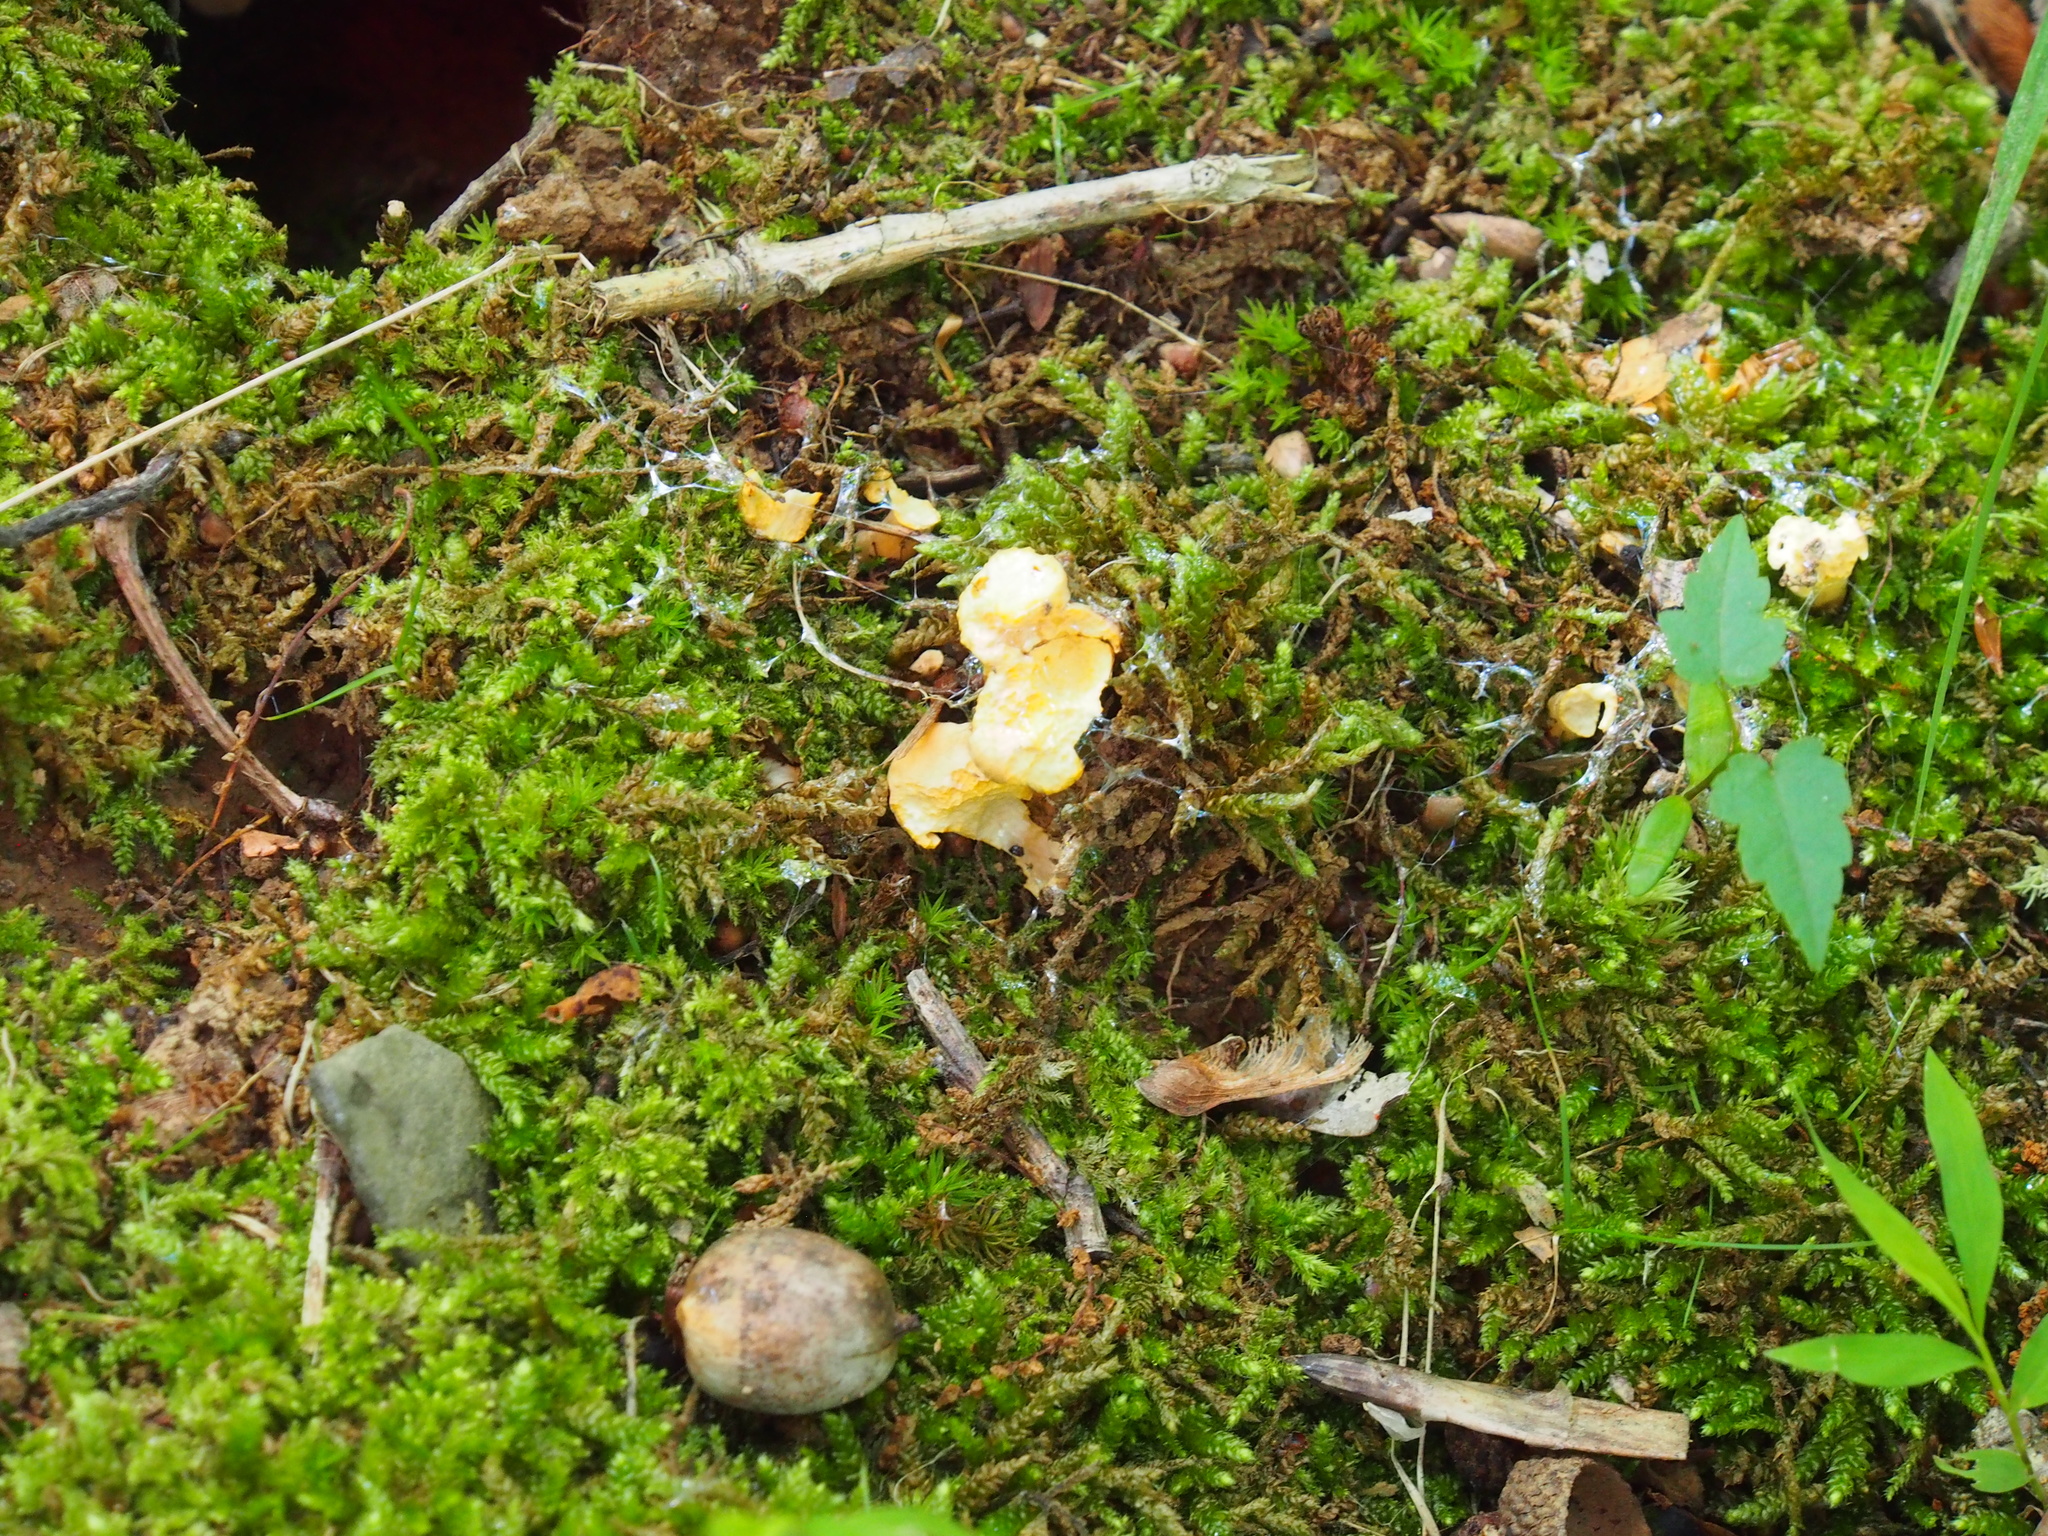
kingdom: Fungi
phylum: Basidiomycota
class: Agaricomycetes
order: Cantharellales
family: Hydnaceae
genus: Cantharellus
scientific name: Cantharellus lateritius
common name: Smooth chanterelle
